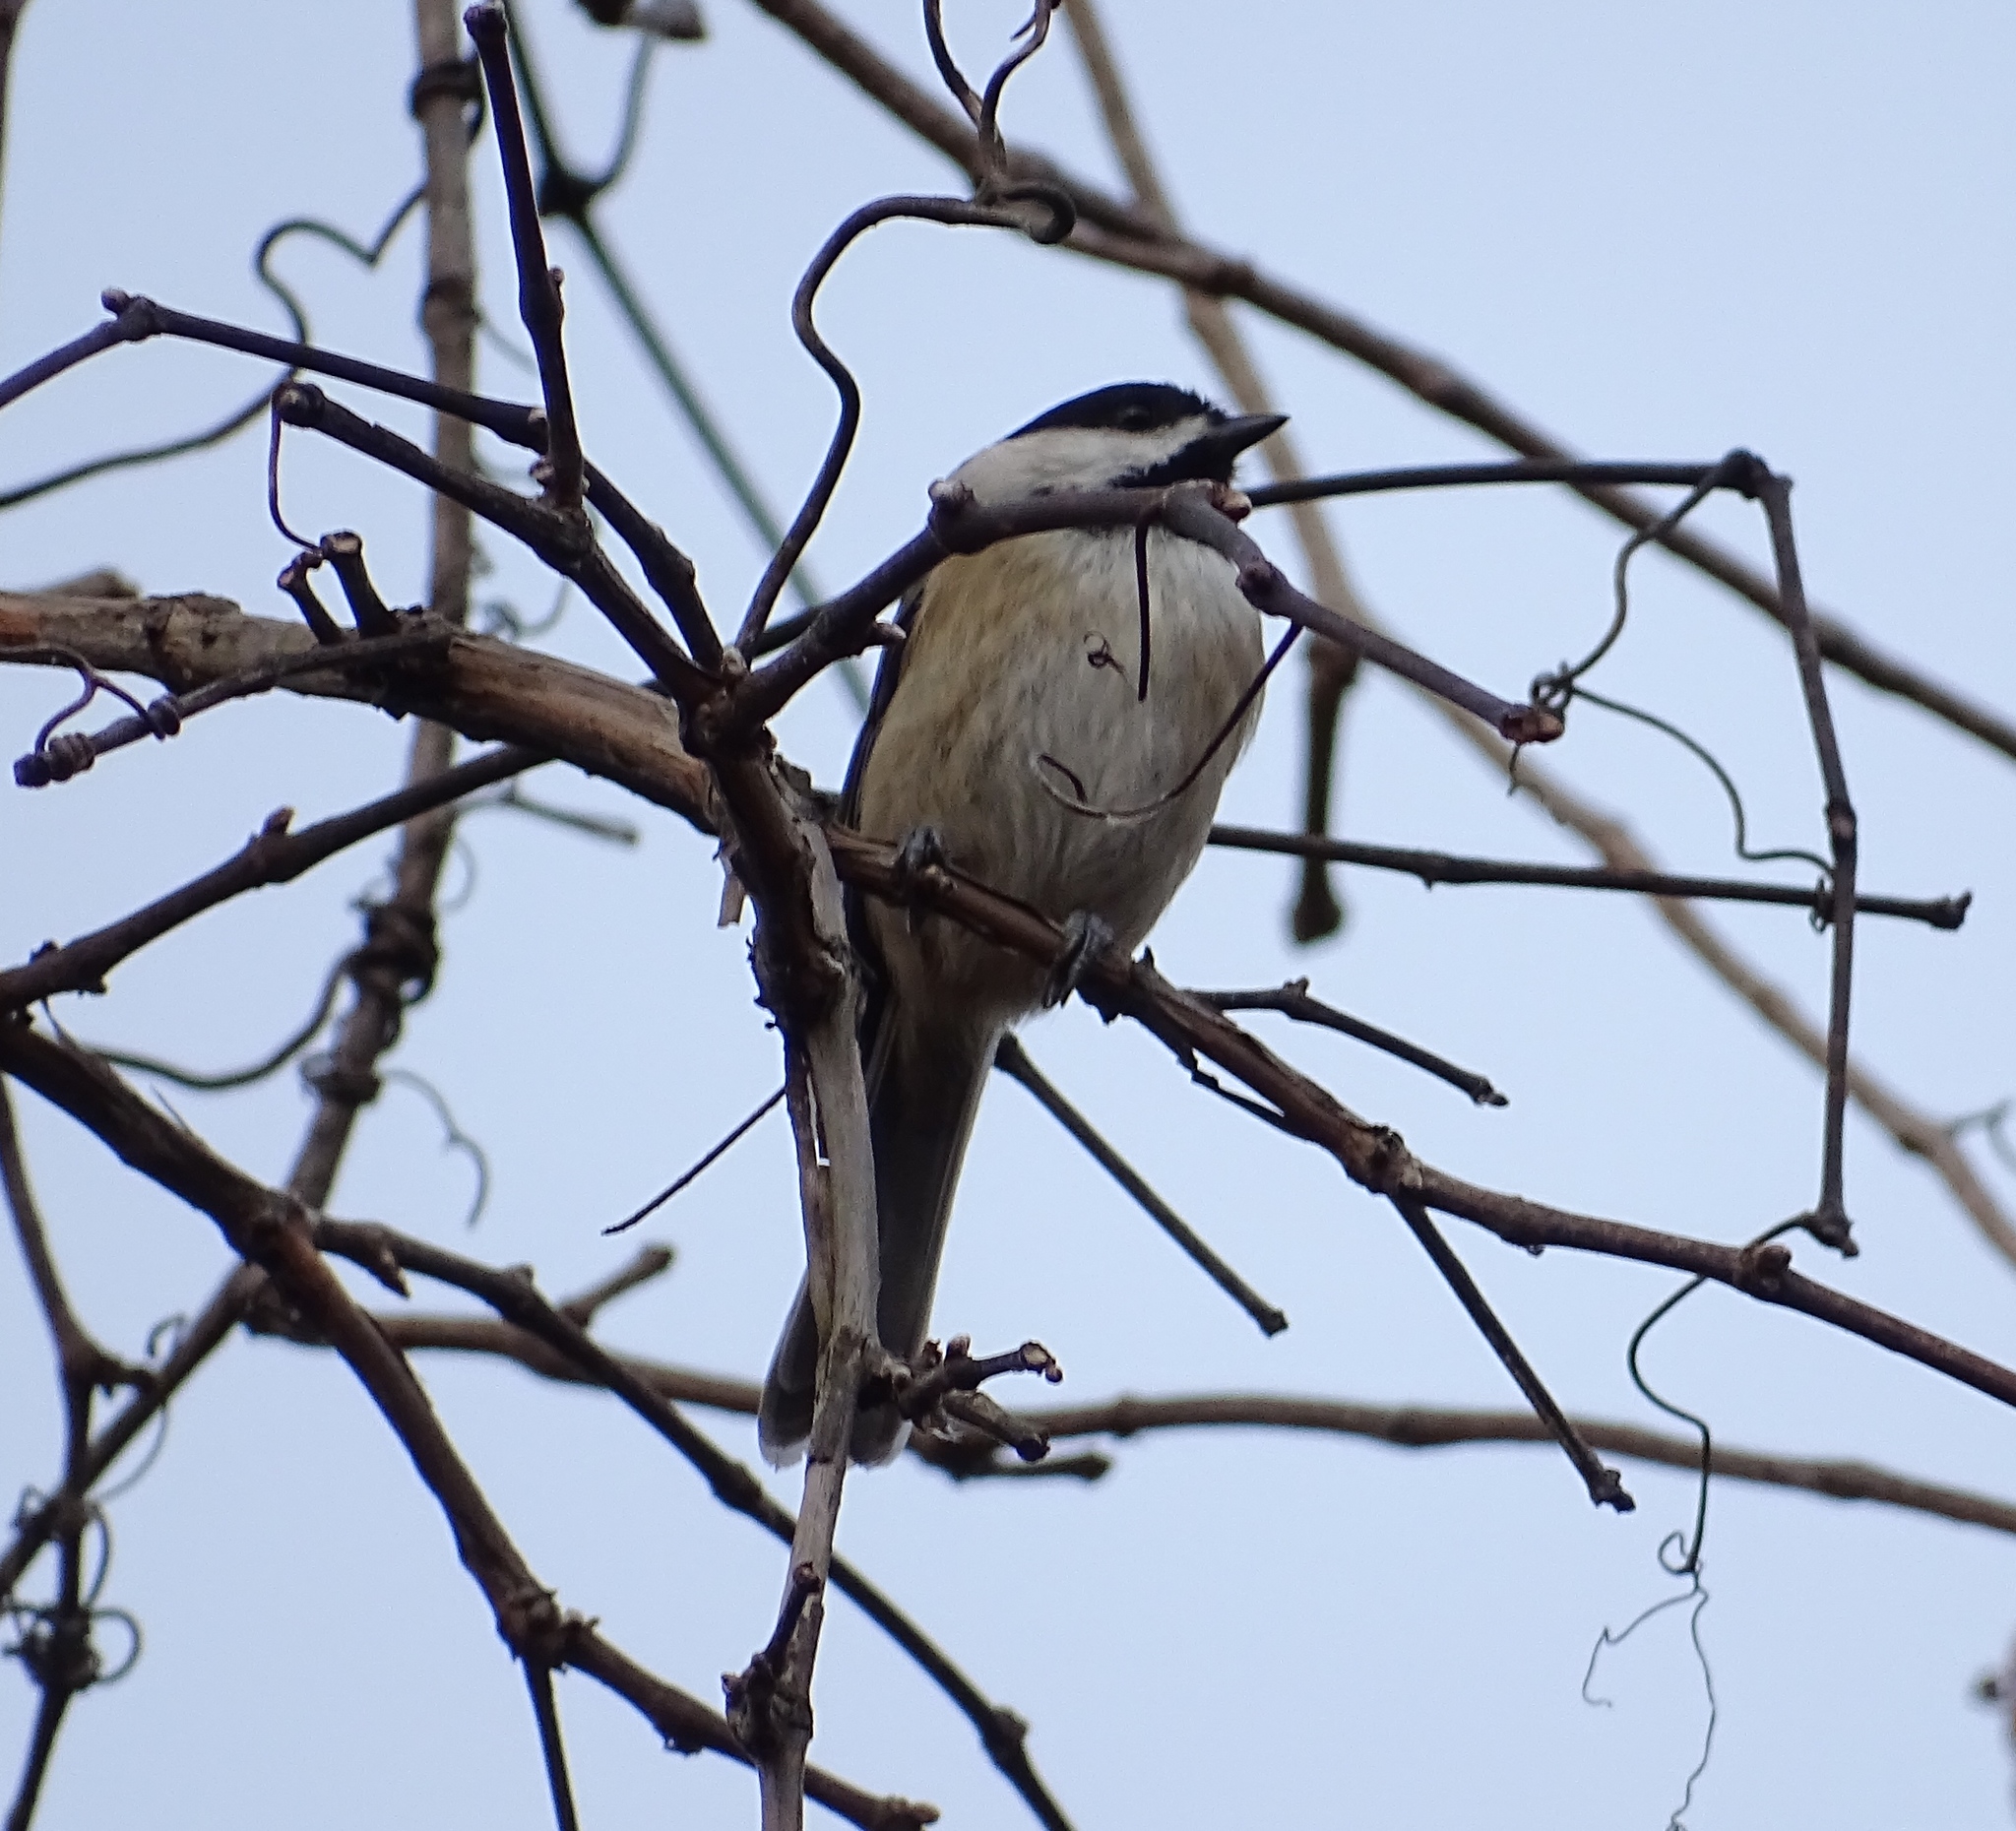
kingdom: Animalia
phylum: Chordata
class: Aves
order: Passeriformes
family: Paridae
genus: Poecile
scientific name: Poecile carolinensis
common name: Carolina chickadee
